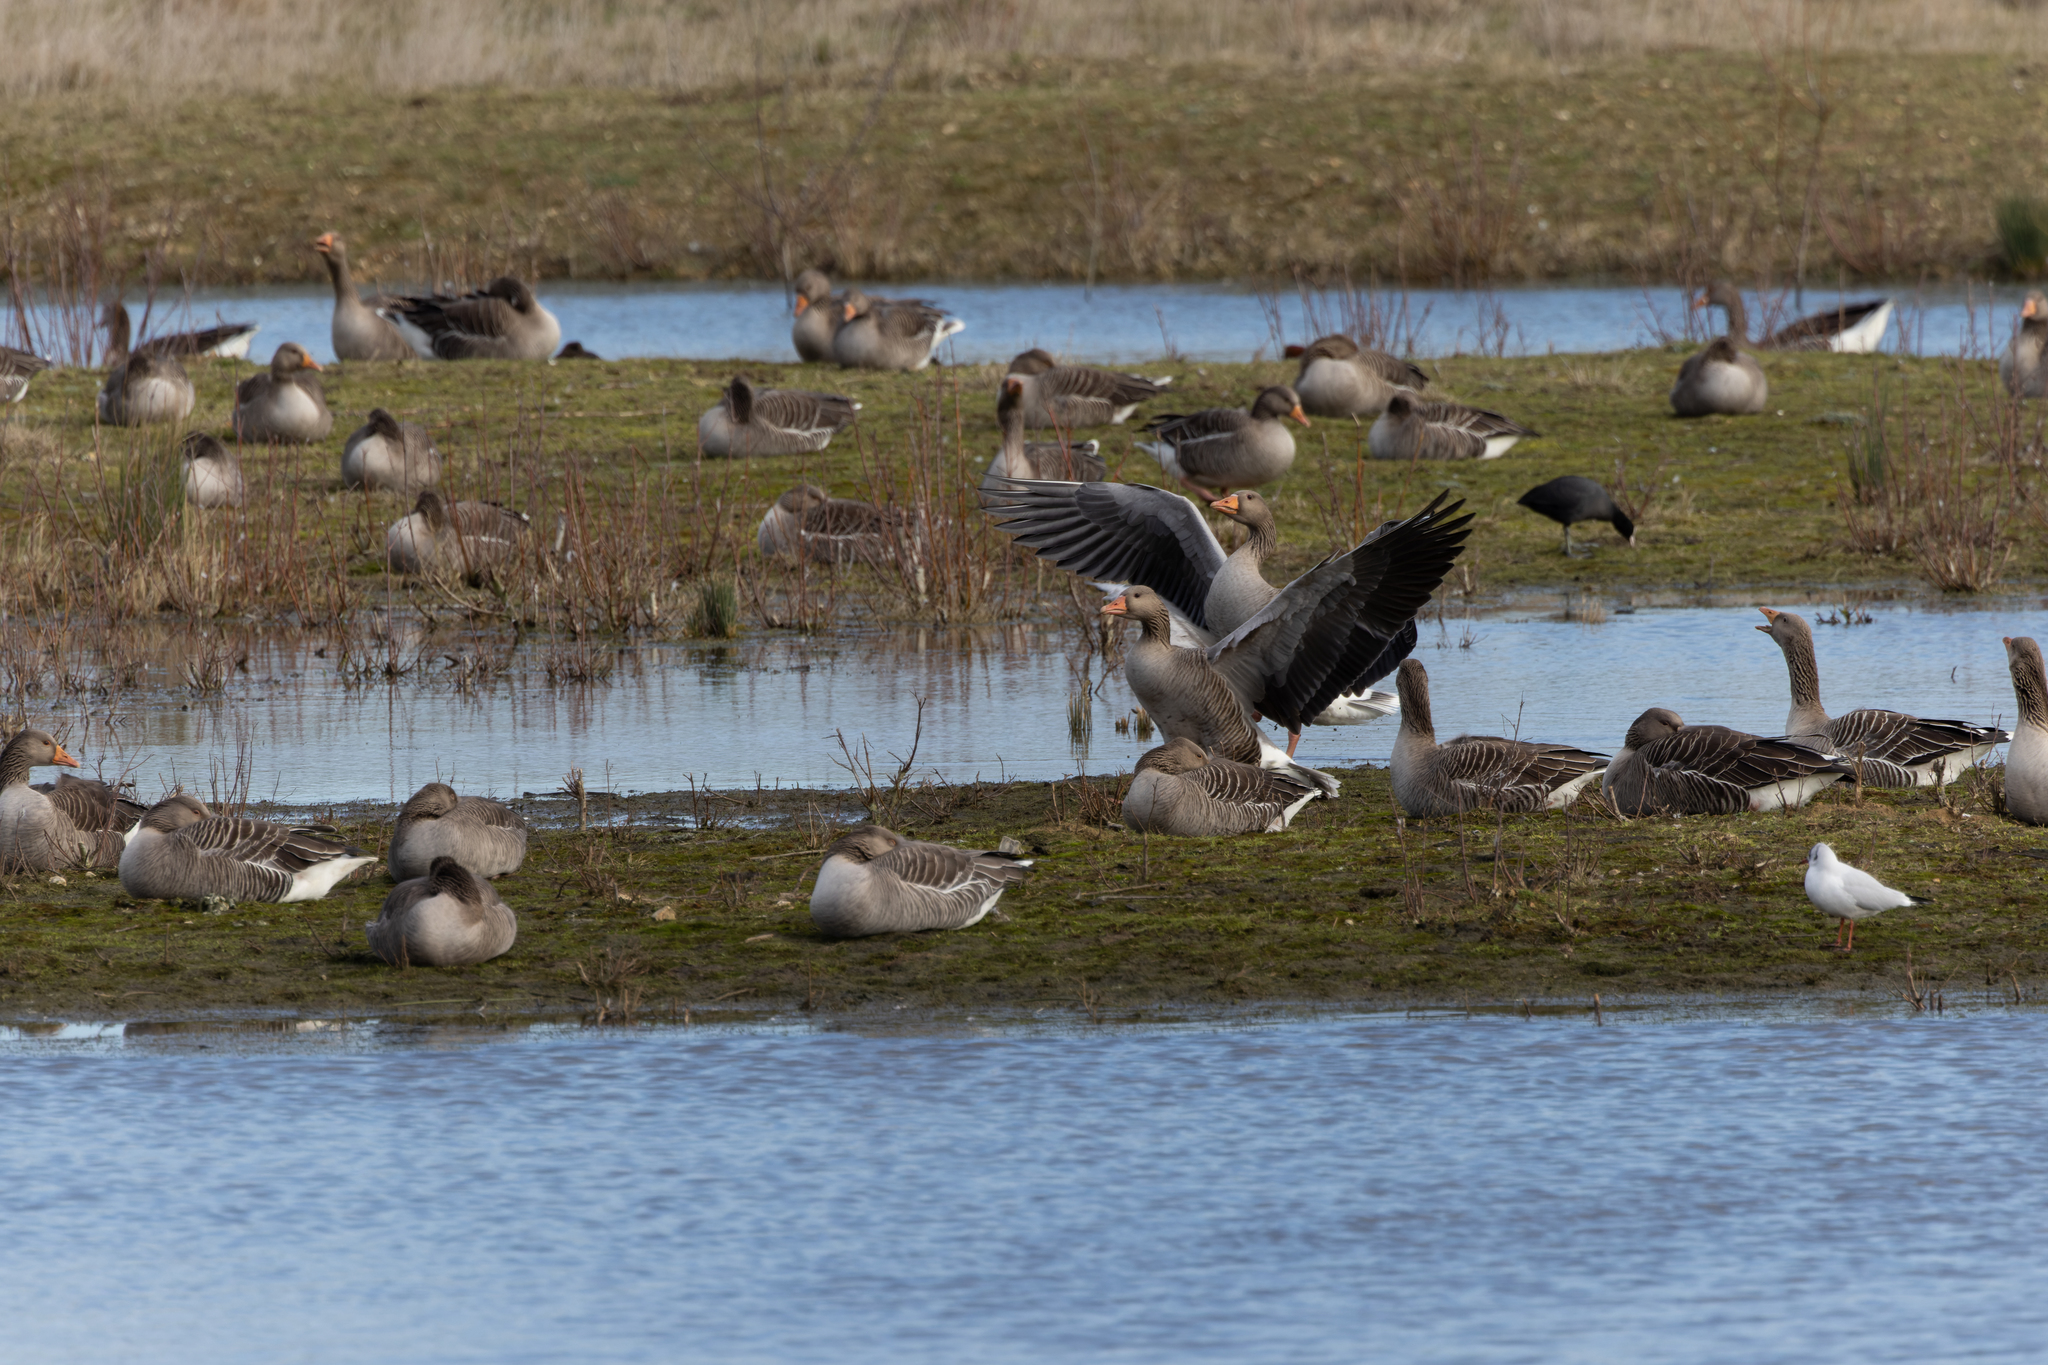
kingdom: Animalia
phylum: Chordata
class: Aves
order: Anseriformes
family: Anatidae
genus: Anser
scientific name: Anser anser
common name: Greylag goose
